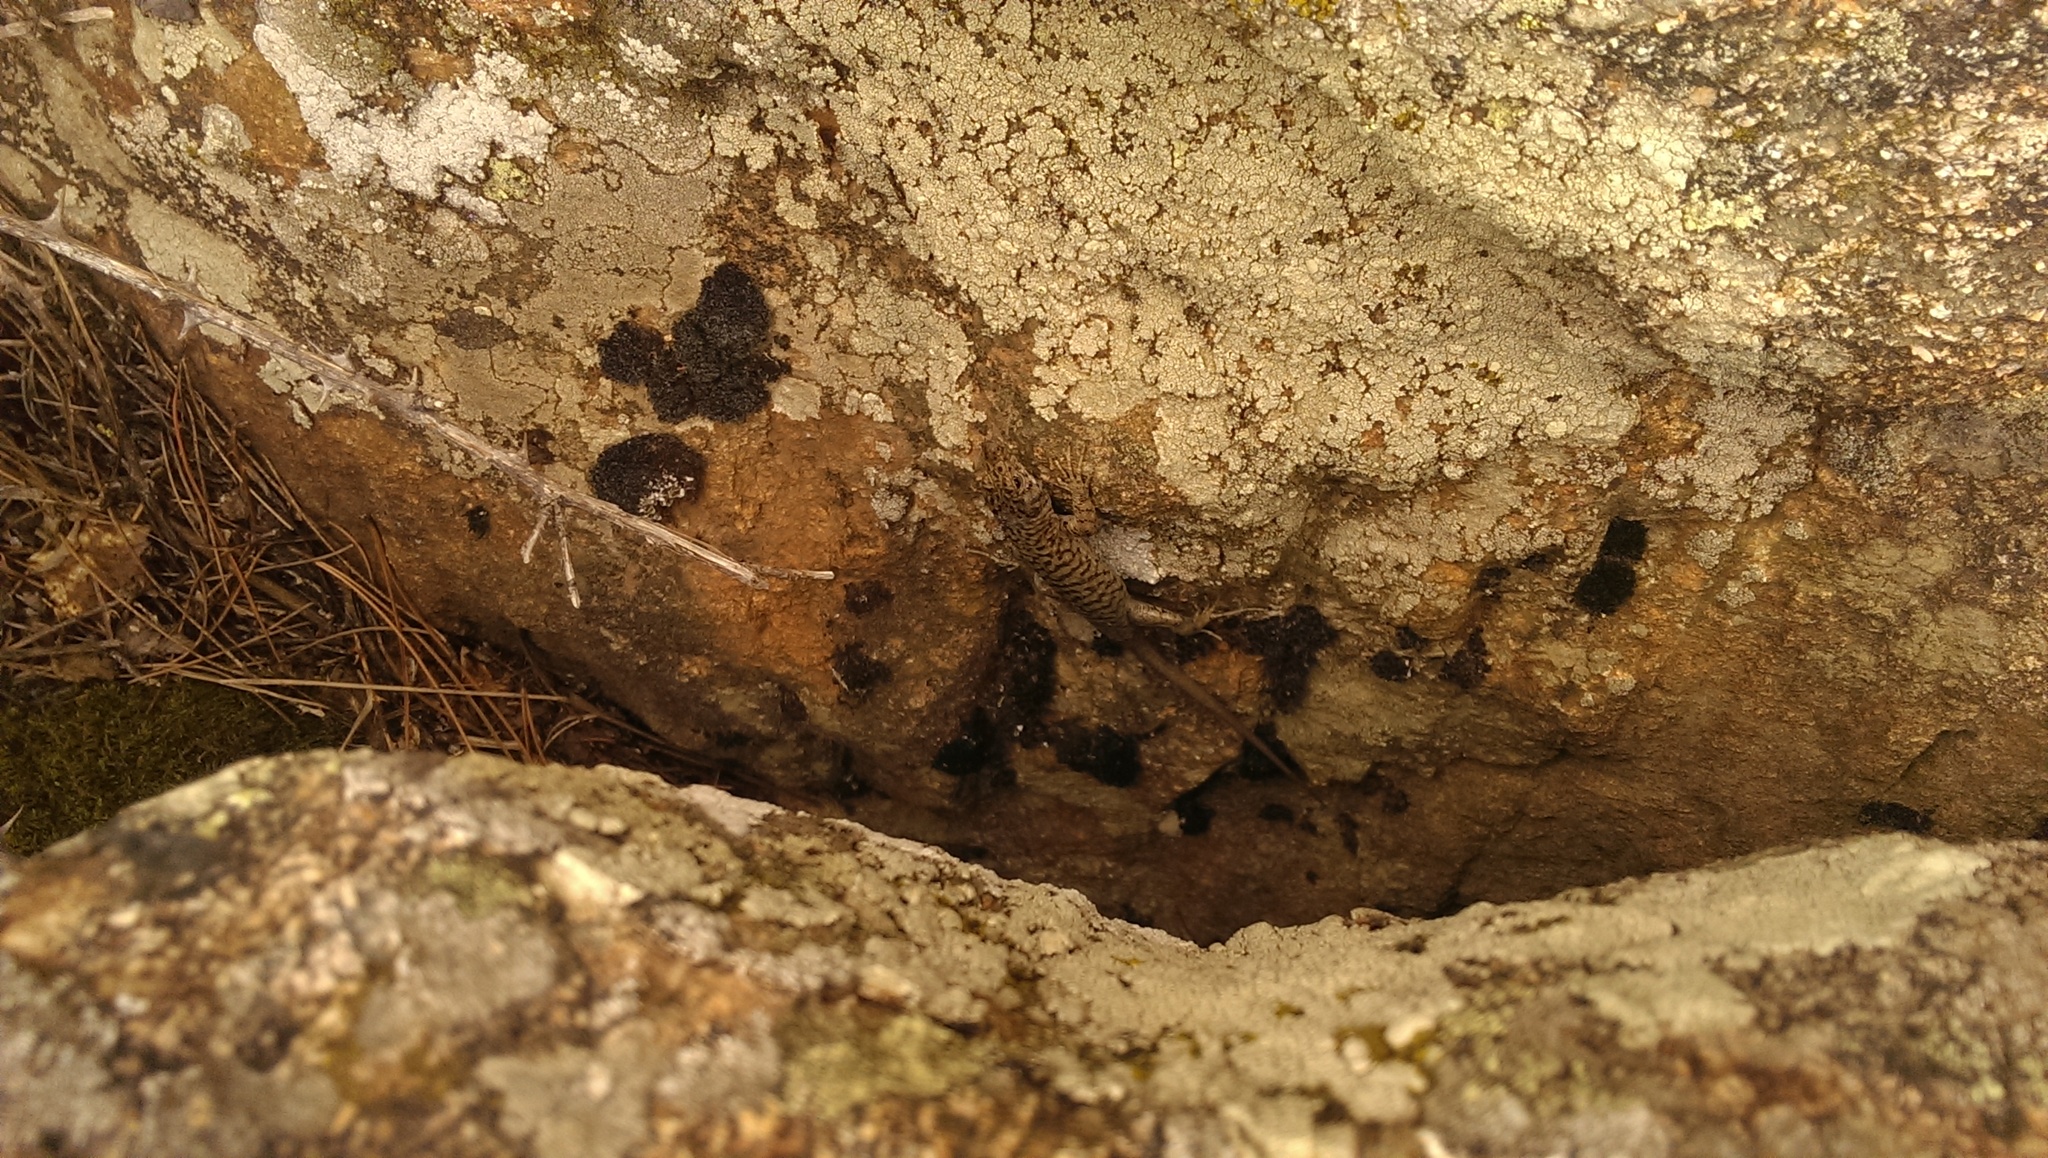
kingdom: Animalia
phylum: Chordata
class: Squamata
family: Lacertidae
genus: Archaeolacerta
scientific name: Archaeolacerta bedriagae
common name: Bedriaga's rock lizard
